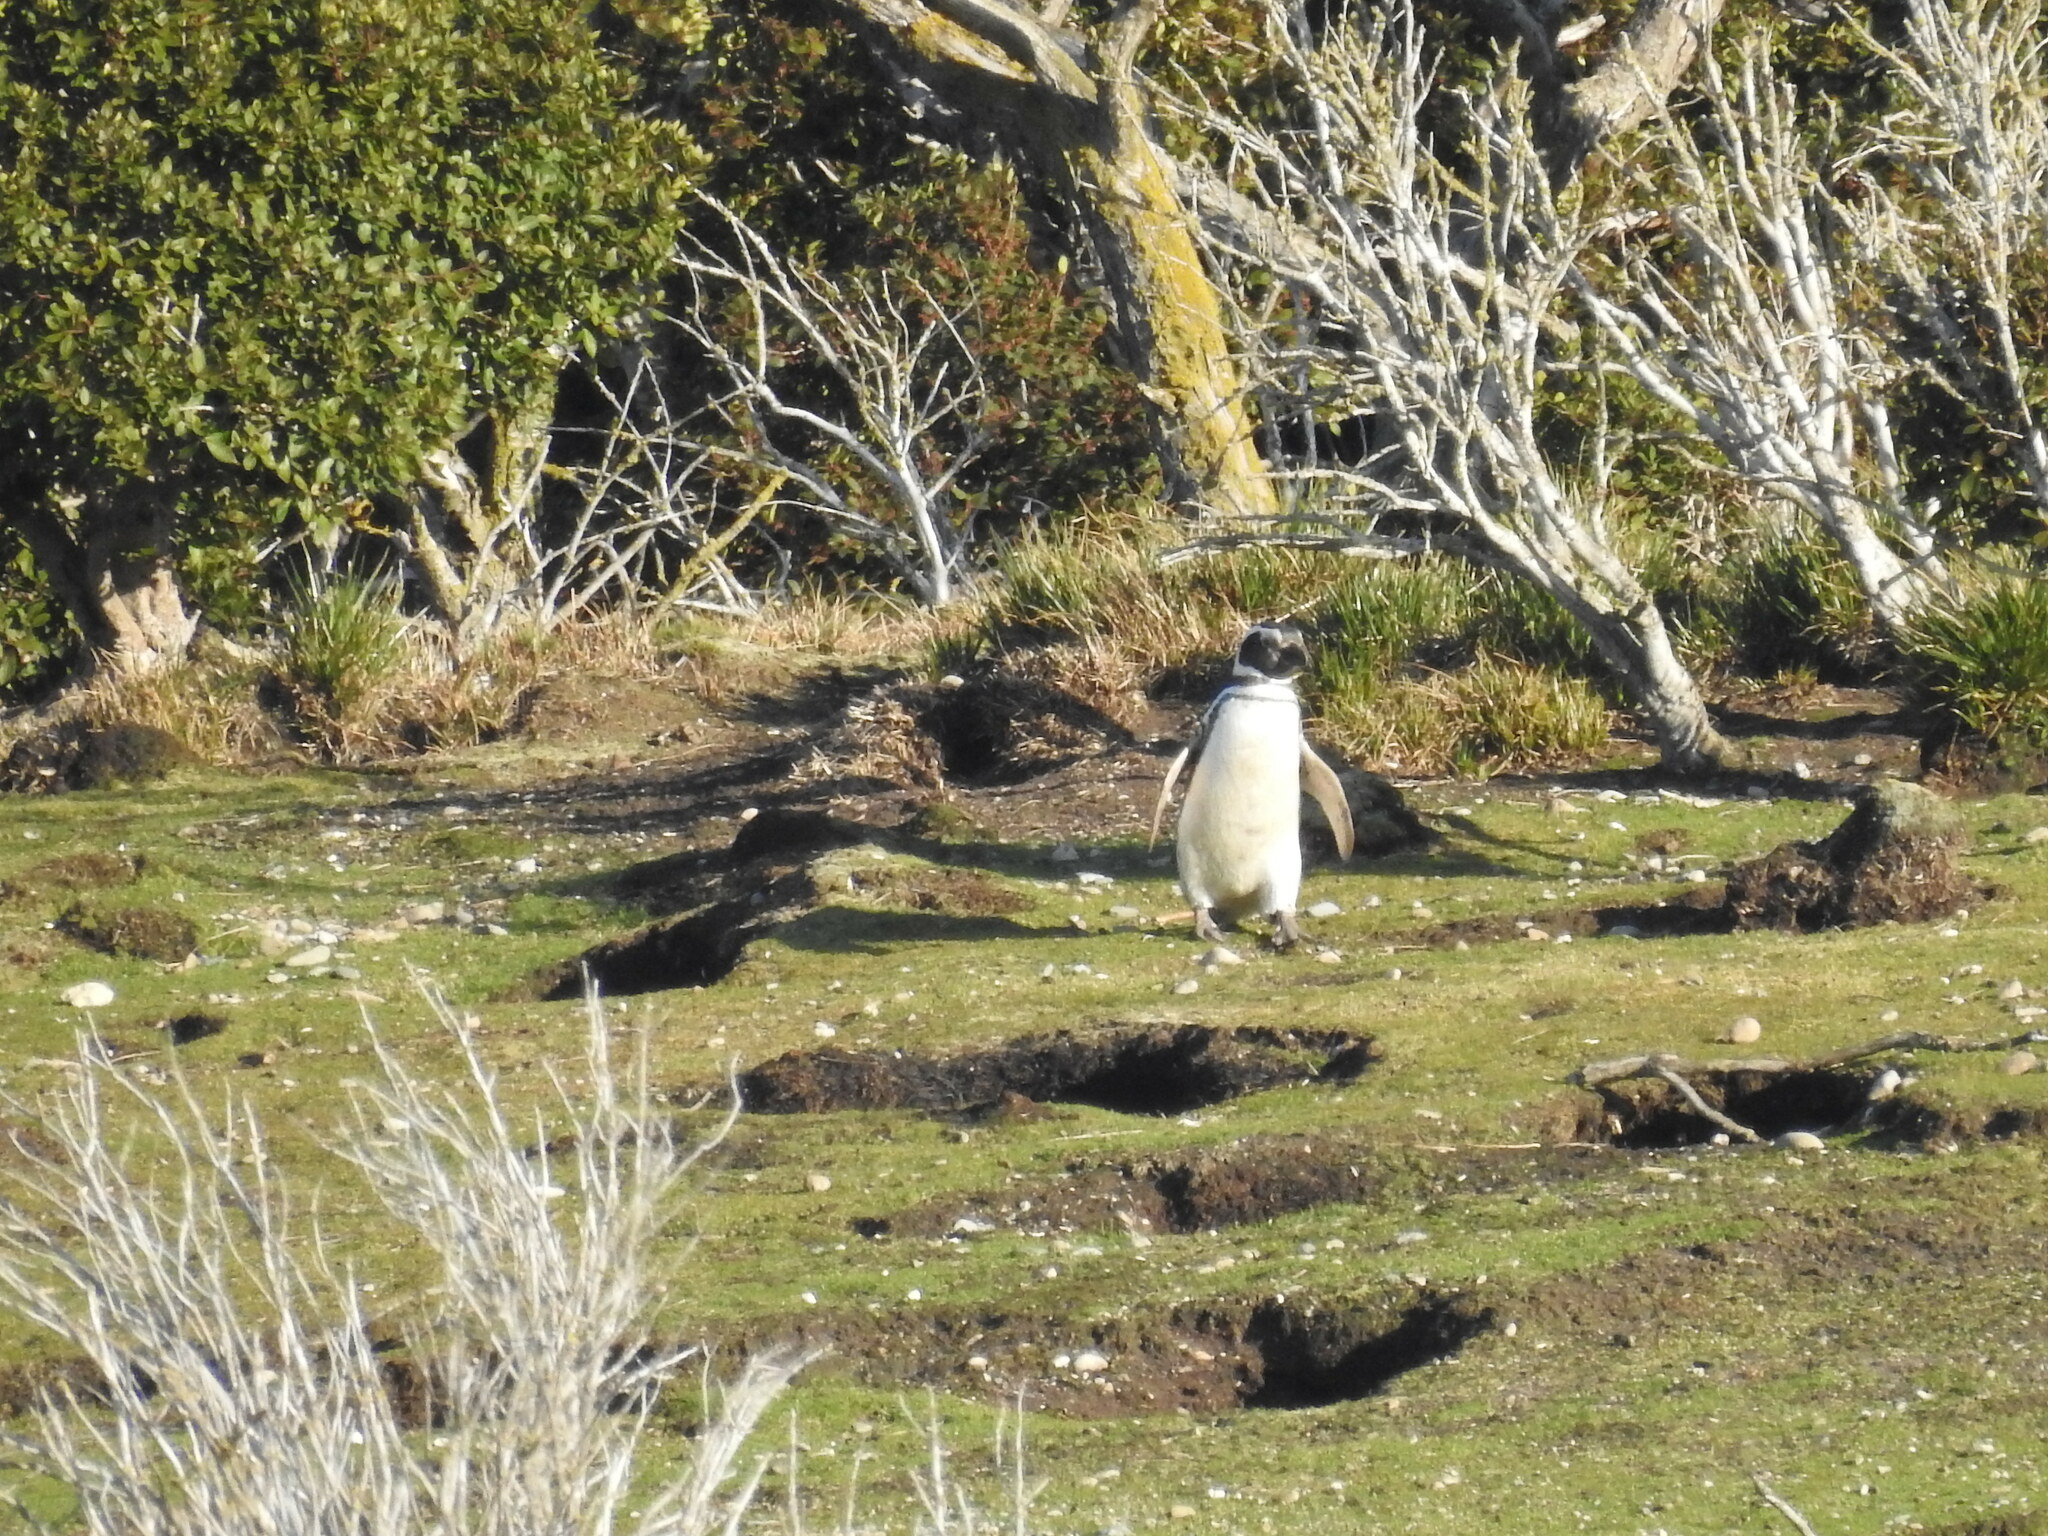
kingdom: Animalia
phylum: Chordata
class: Aves
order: Sphenisciformes
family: Spheniscidae
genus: Spheniscus
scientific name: Spheniscus magellanicus
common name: Magellanic penguin
